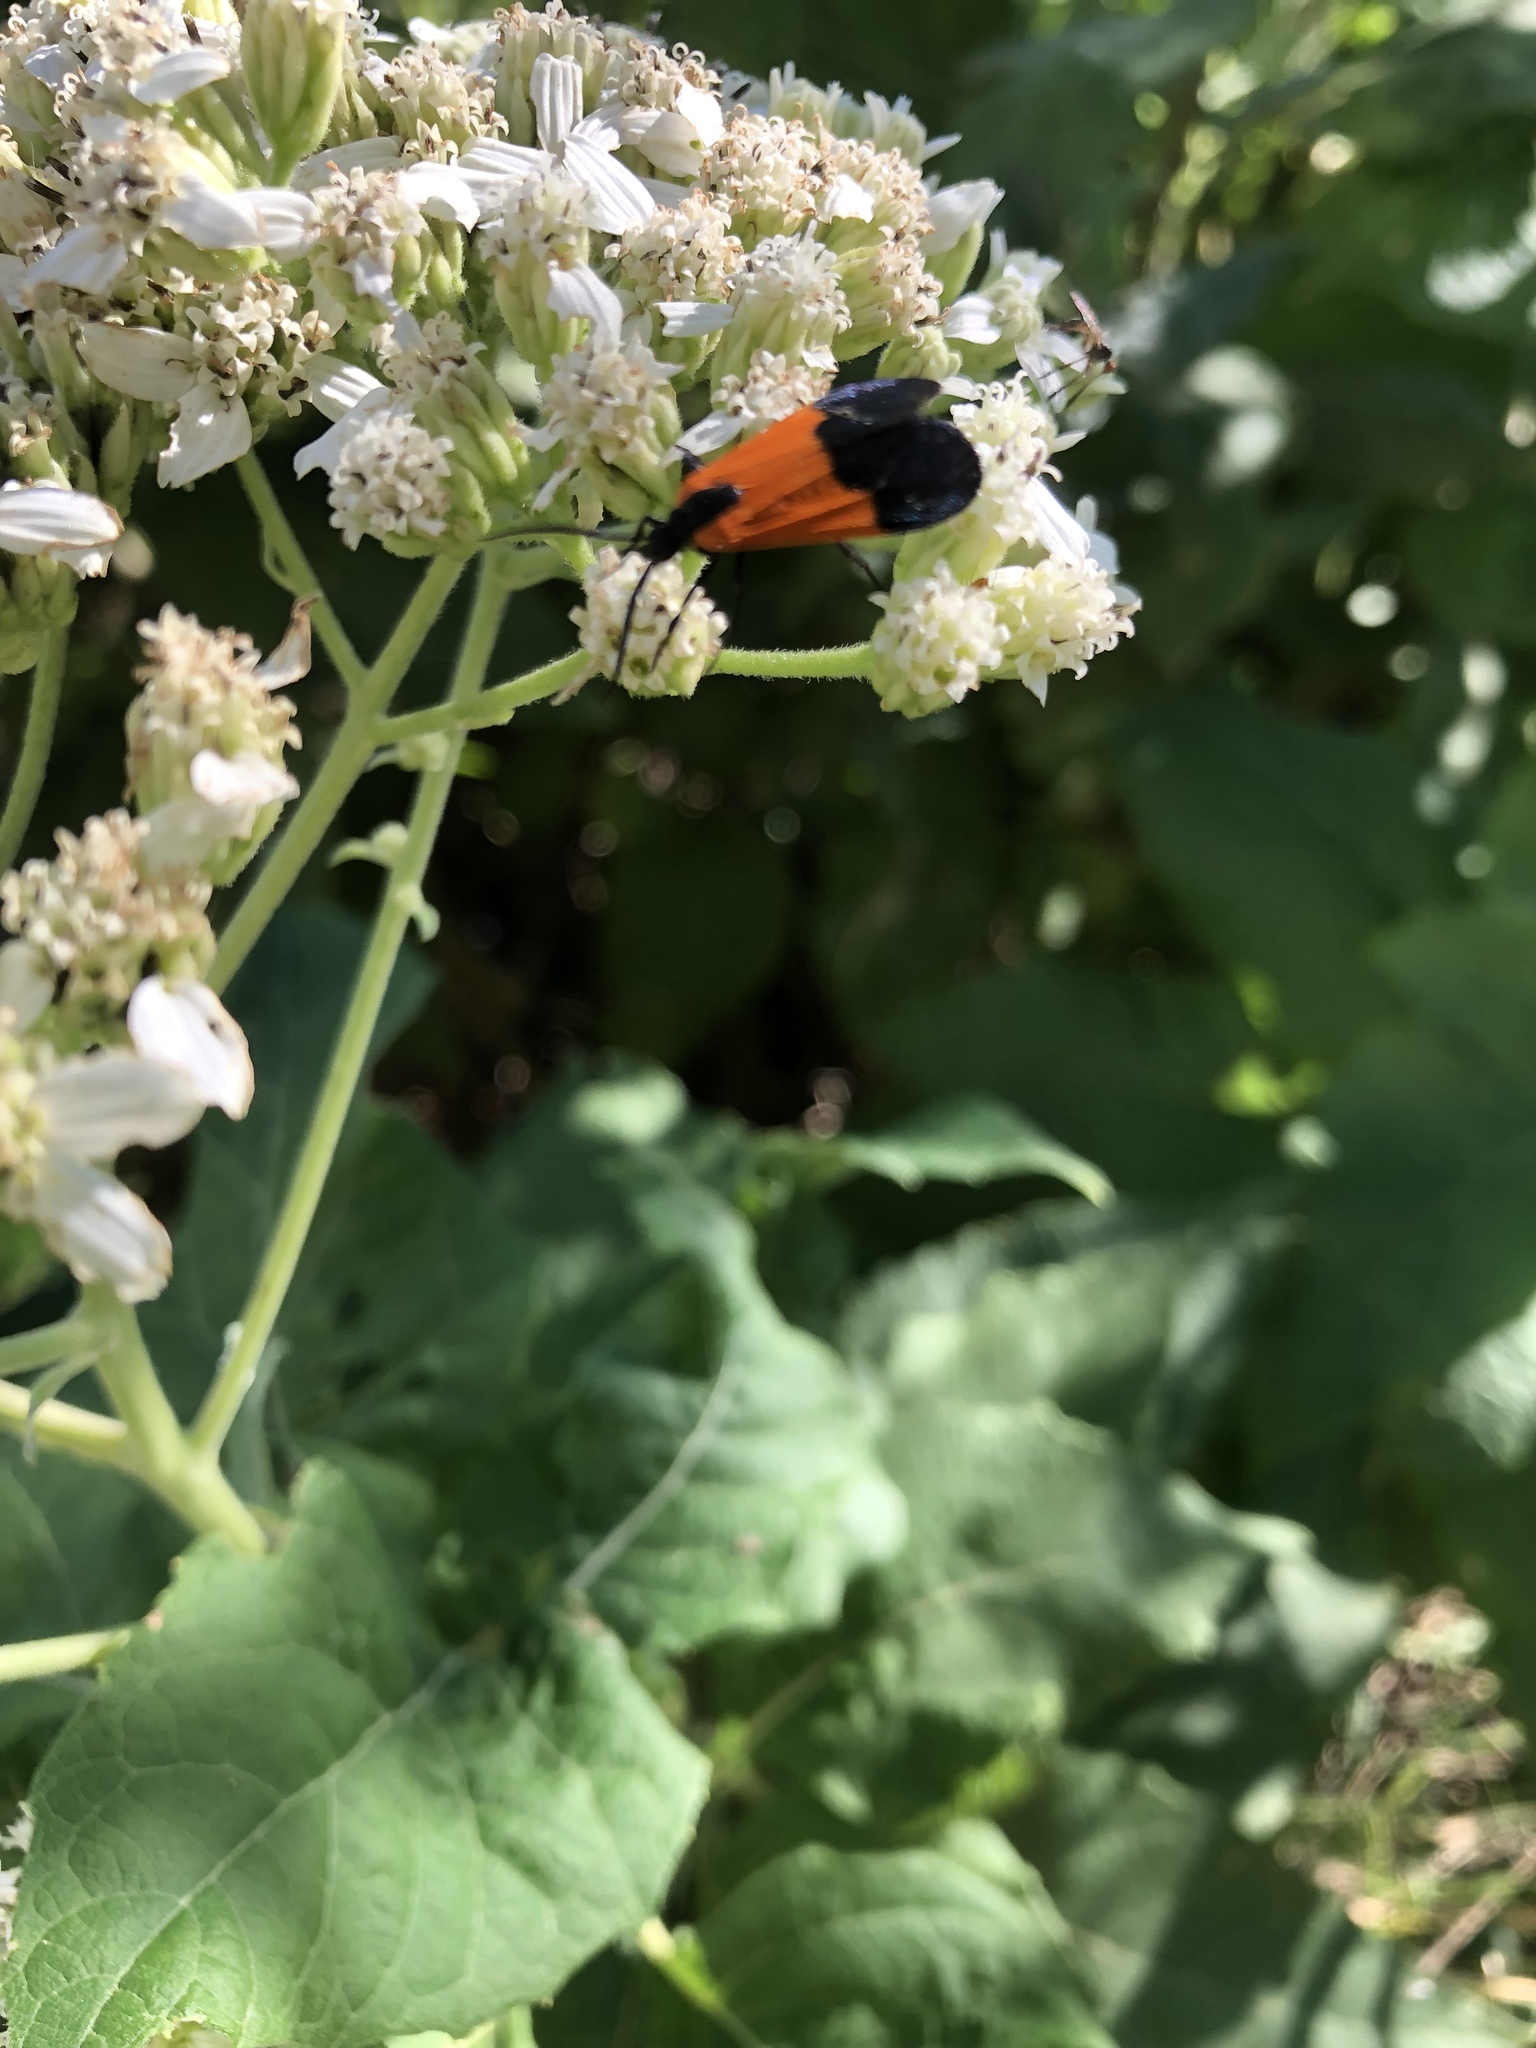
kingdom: Animalia
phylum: Arthropoda
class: Insecta
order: Lepidoptera
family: Erebidae
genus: Lycomorpha
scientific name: Lycomorpha pholus
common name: Black-and-yellow lichen moth
